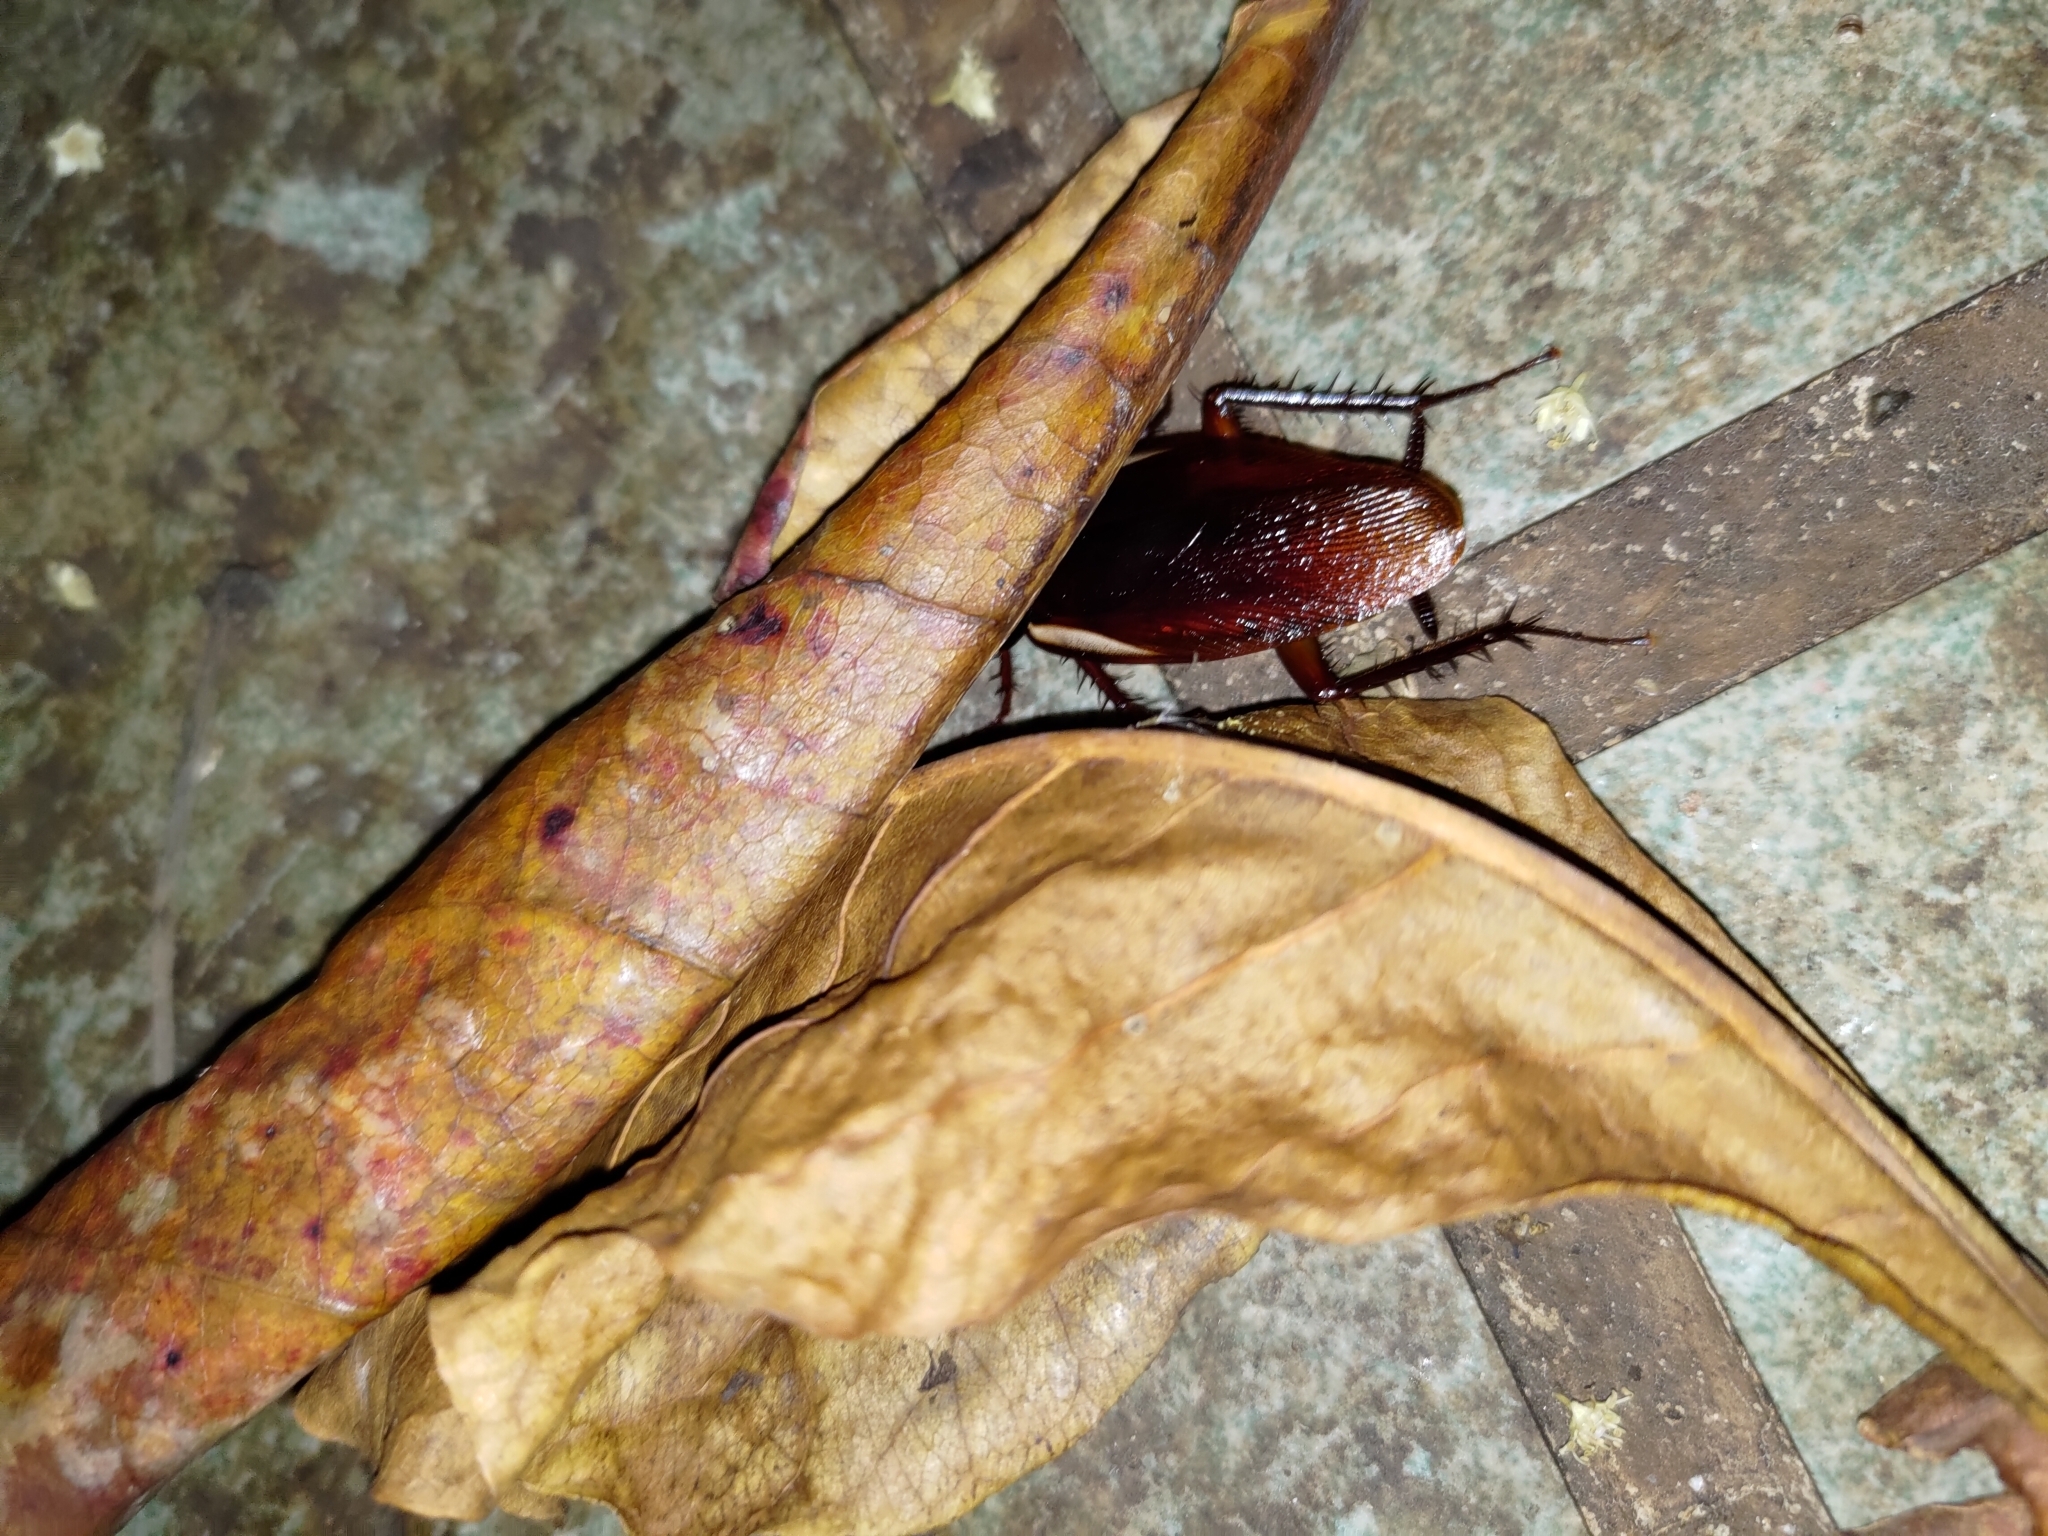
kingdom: Animalia
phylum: Arthropoda
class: Insecta
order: Blattodea
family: Blattidae
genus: Periplaneta
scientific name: Periplaneta australasiae
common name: Australian cockroach
